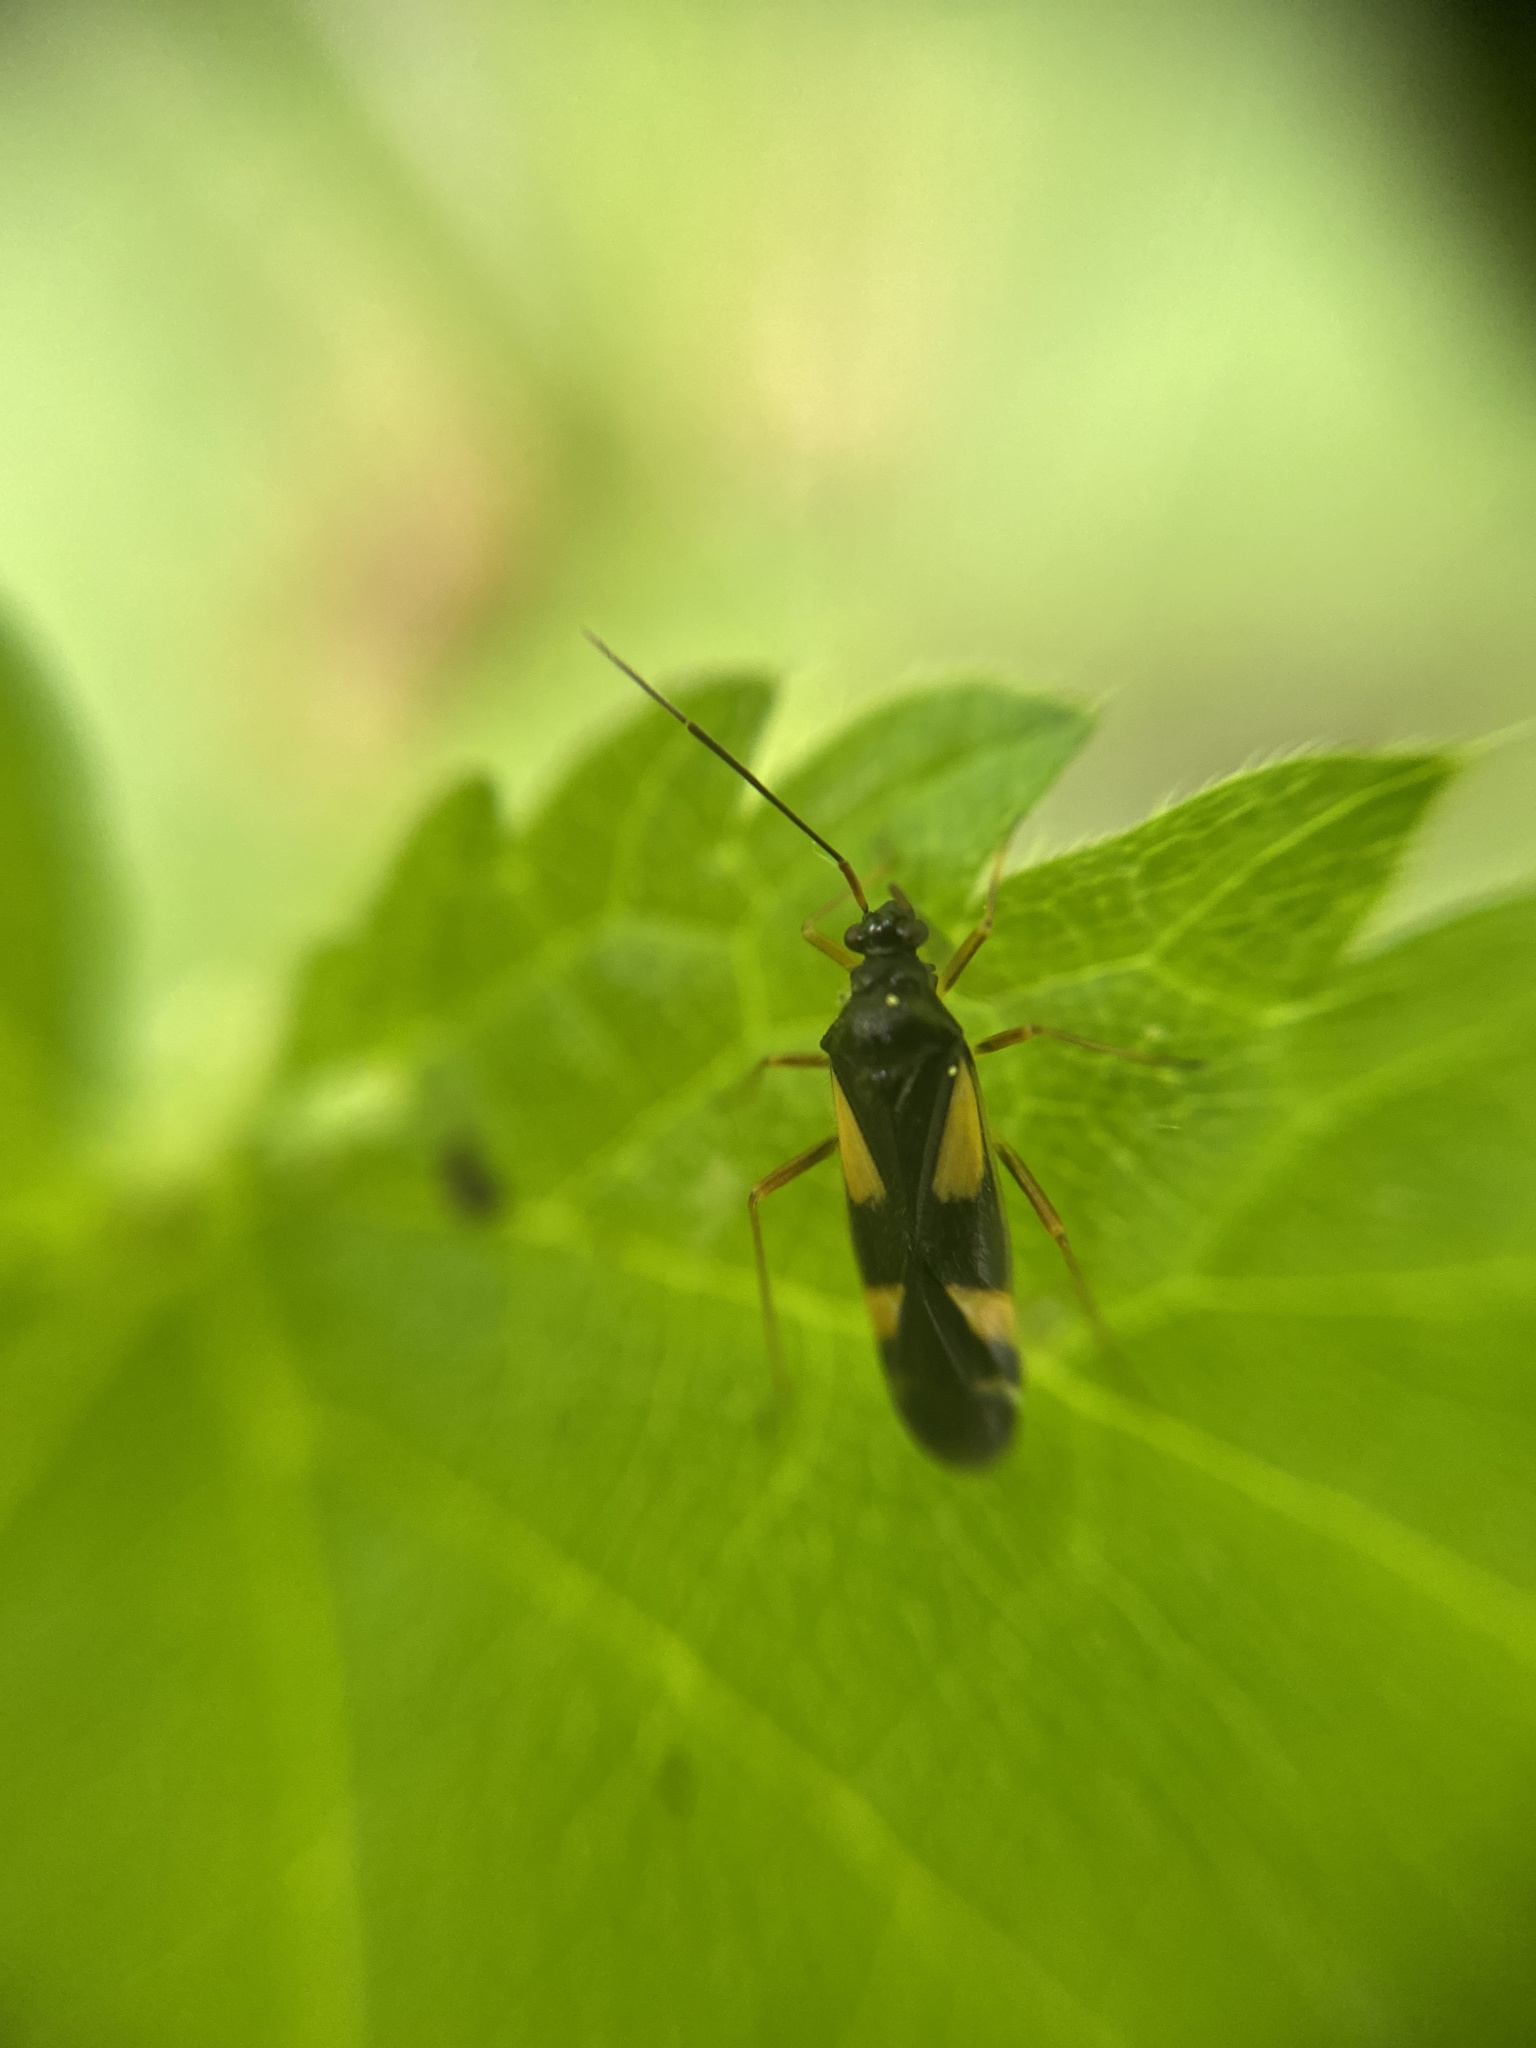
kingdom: Animalia
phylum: Arthropoda
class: Insecta
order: Hemiptera
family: Miridae
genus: Dryophilocoris
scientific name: Dryophilocoris flavoquadrimaculatus
